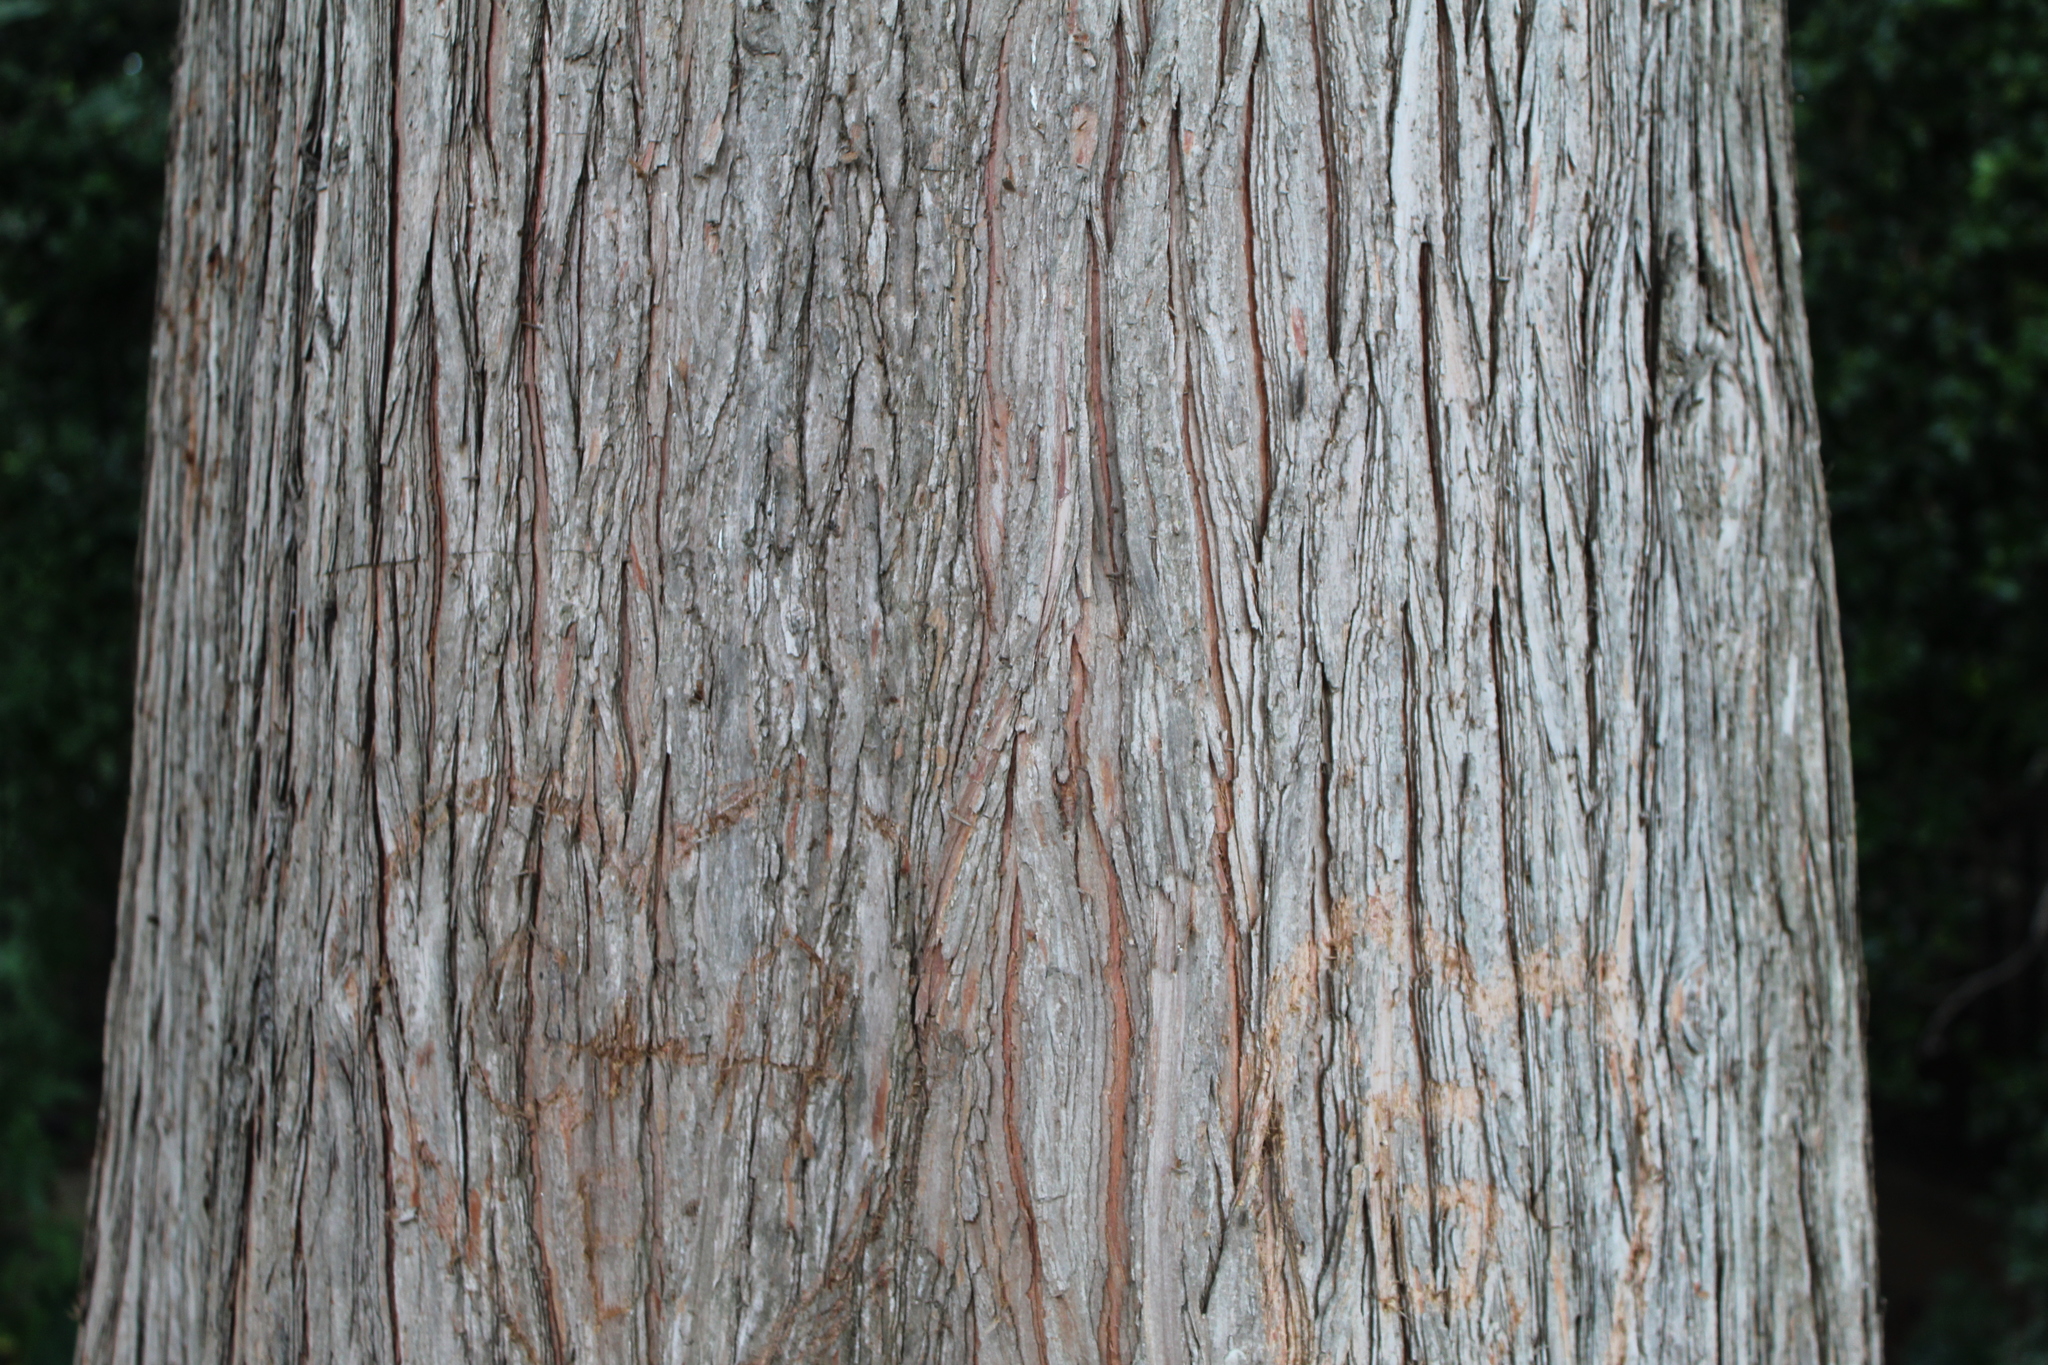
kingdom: Plantae
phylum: Tracheophyta
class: Pinopsida
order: Pinales
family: Cupressaceae
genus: Taxodium
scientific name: Taxodium distichum
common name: Bald cypress
